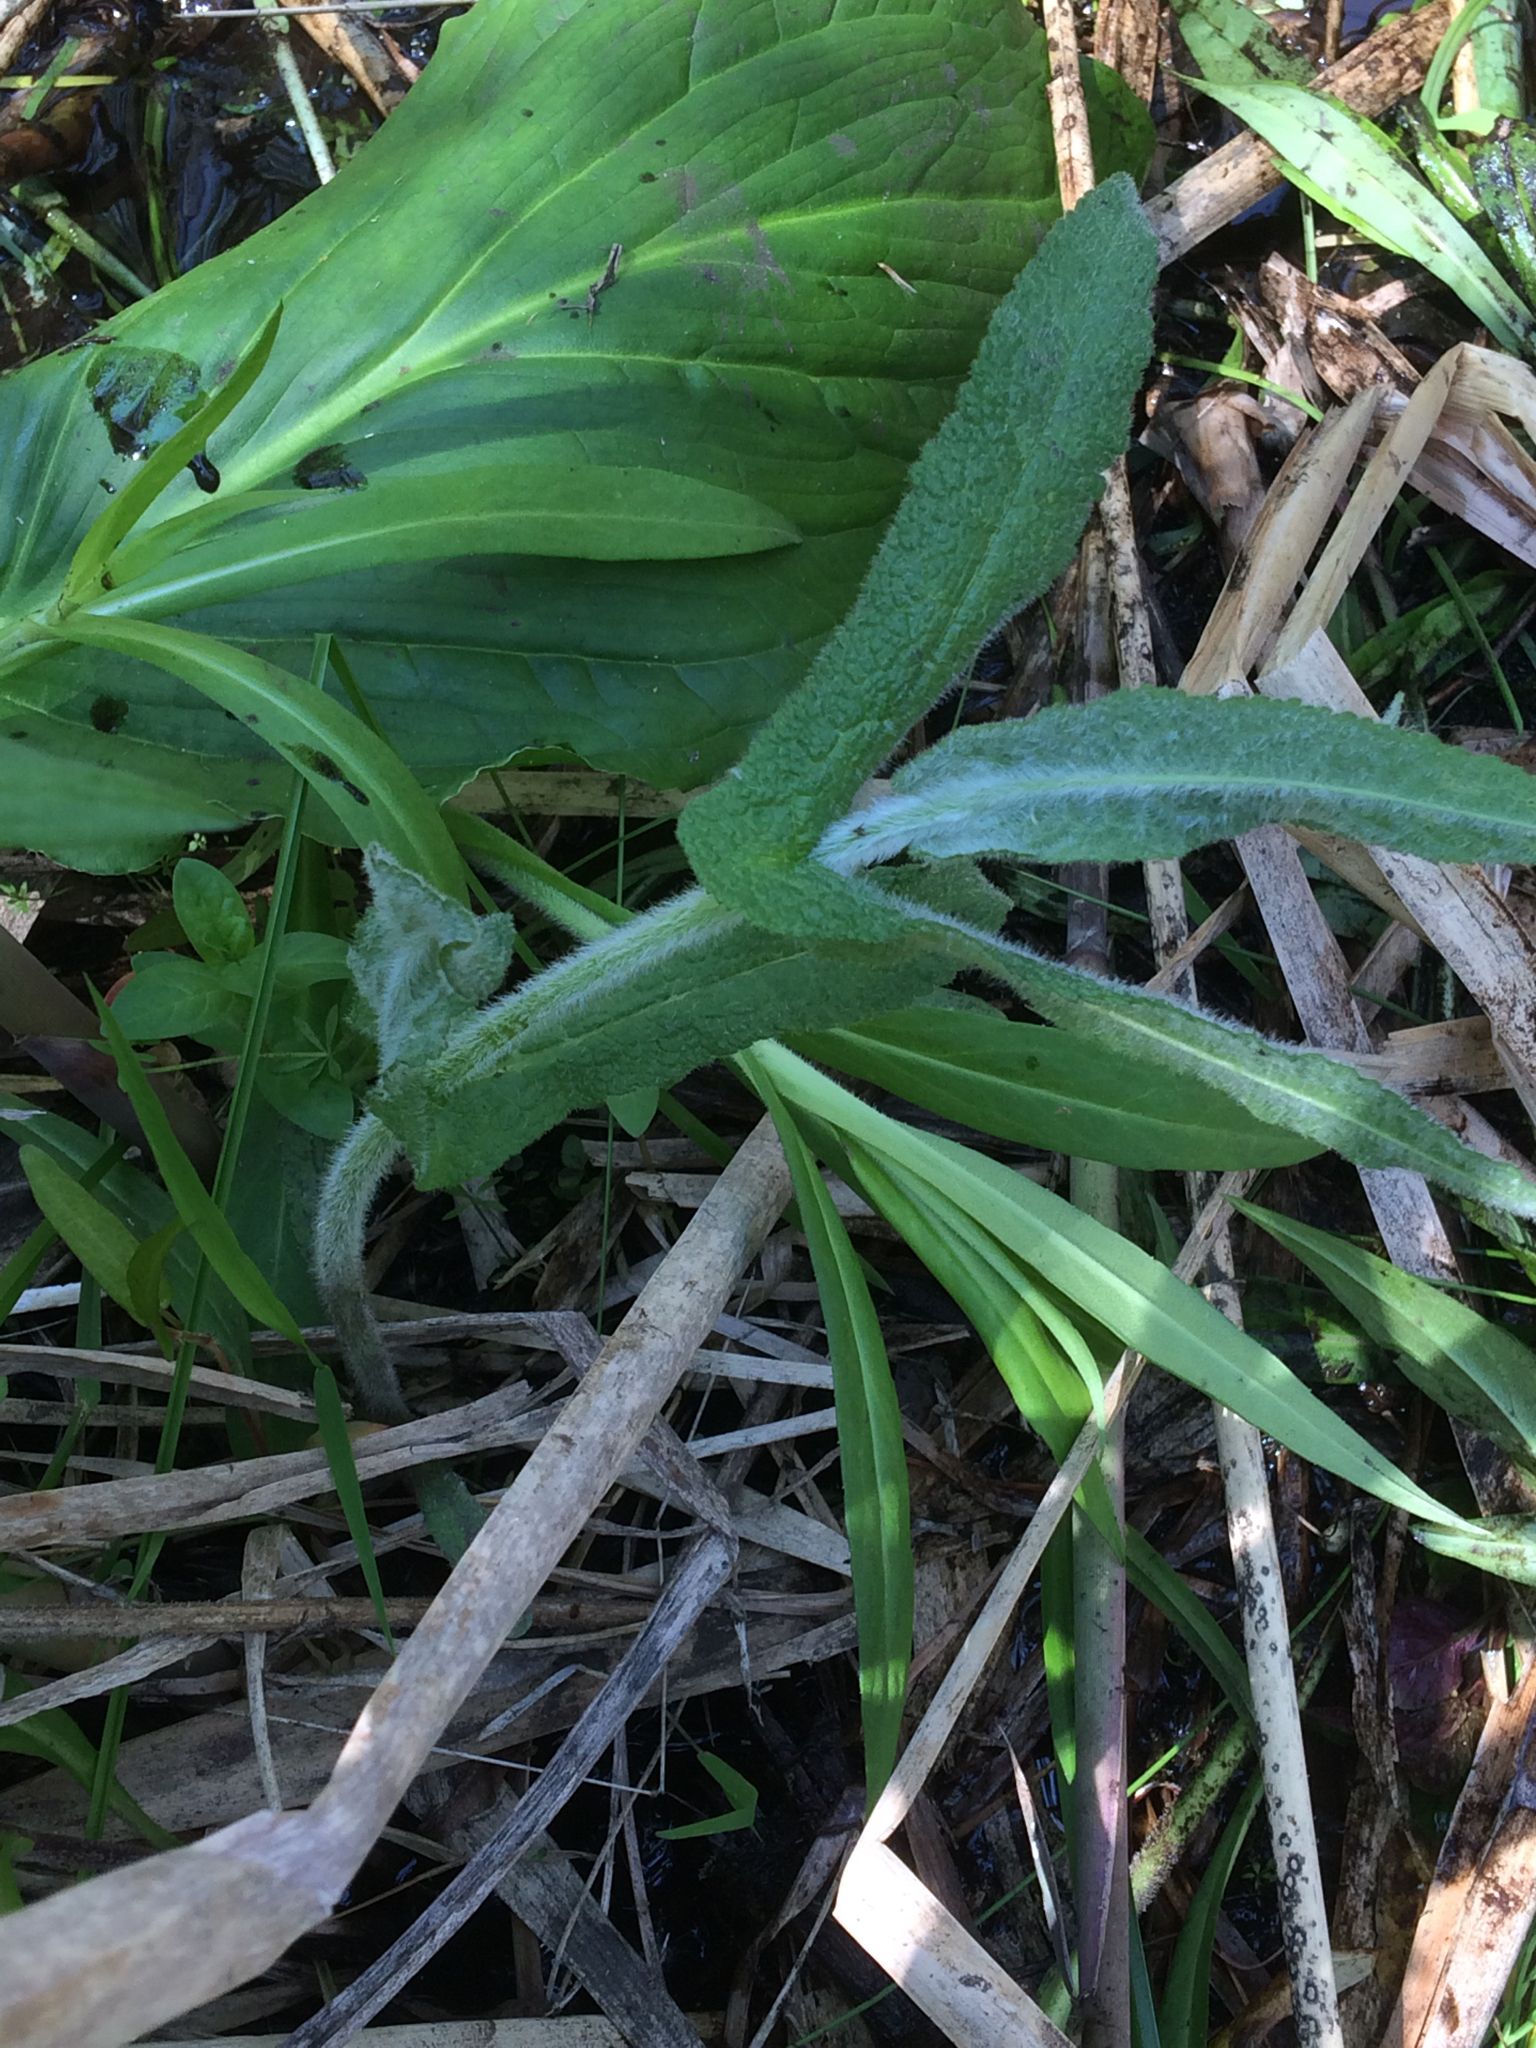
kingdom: Plantae
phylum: Tracheophyta
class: Magnoliopsida
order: Asterales
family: Asteraceae
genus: Eupatorium
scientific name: Eupatorium perfoliatum
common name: Boneset
